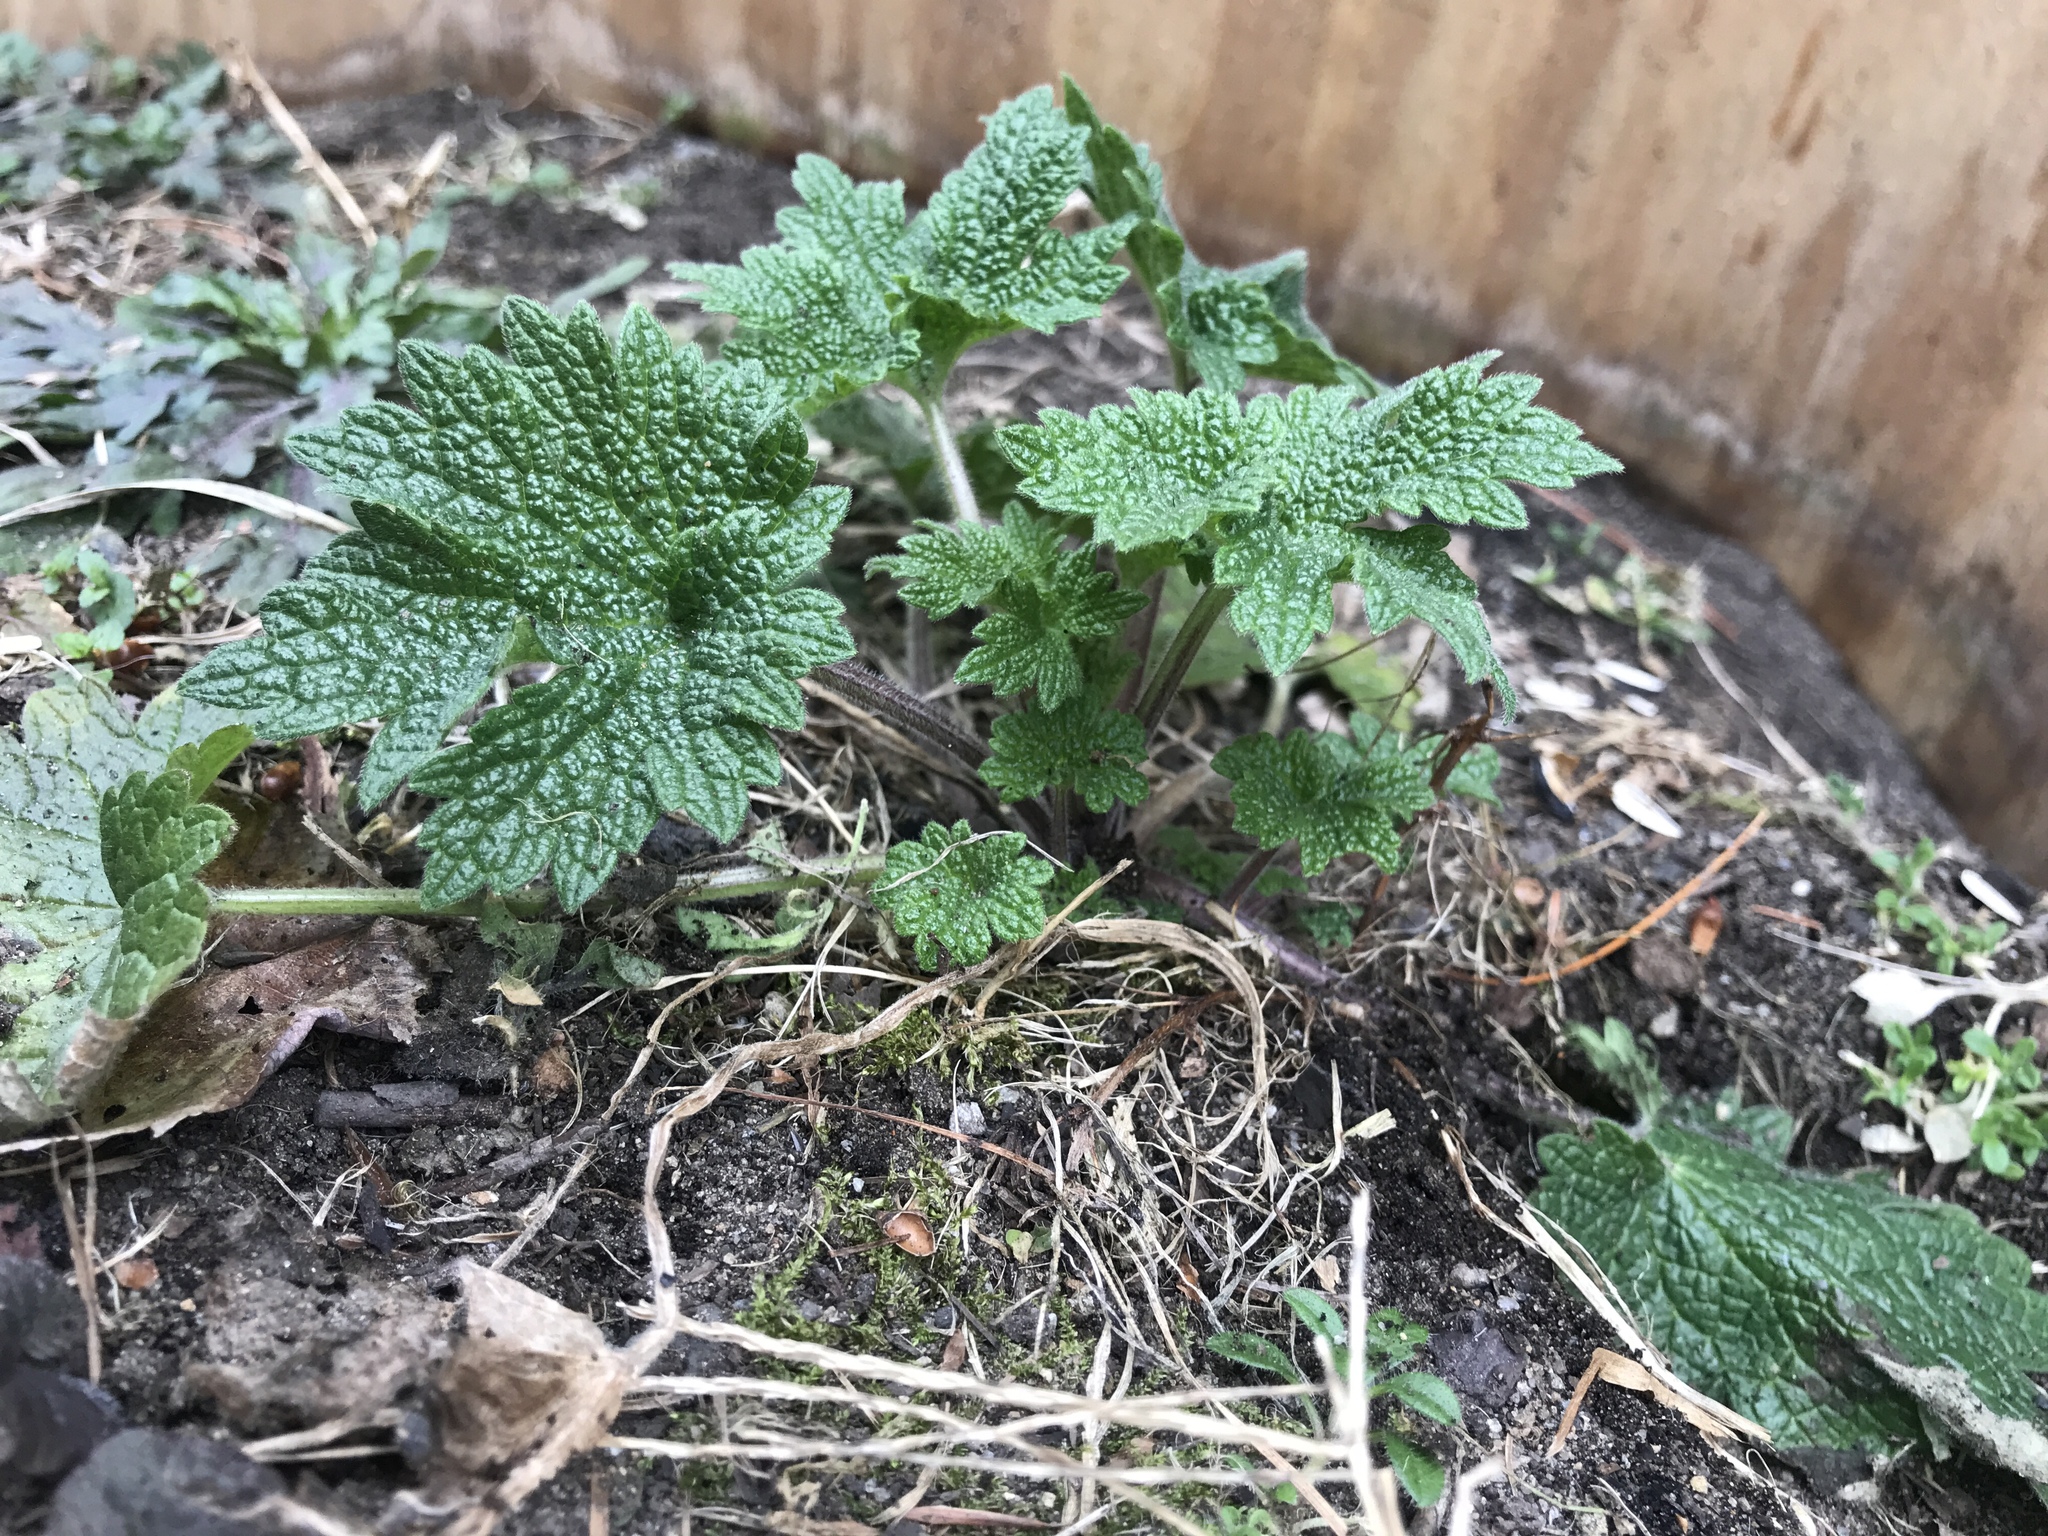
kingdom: Plantae
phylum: Tracheophyta
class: Magnoliopsida
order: Lamiales
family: Lamiaceae
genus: Leonurus
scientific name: Leonurus cardiaca
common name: Motherwort
